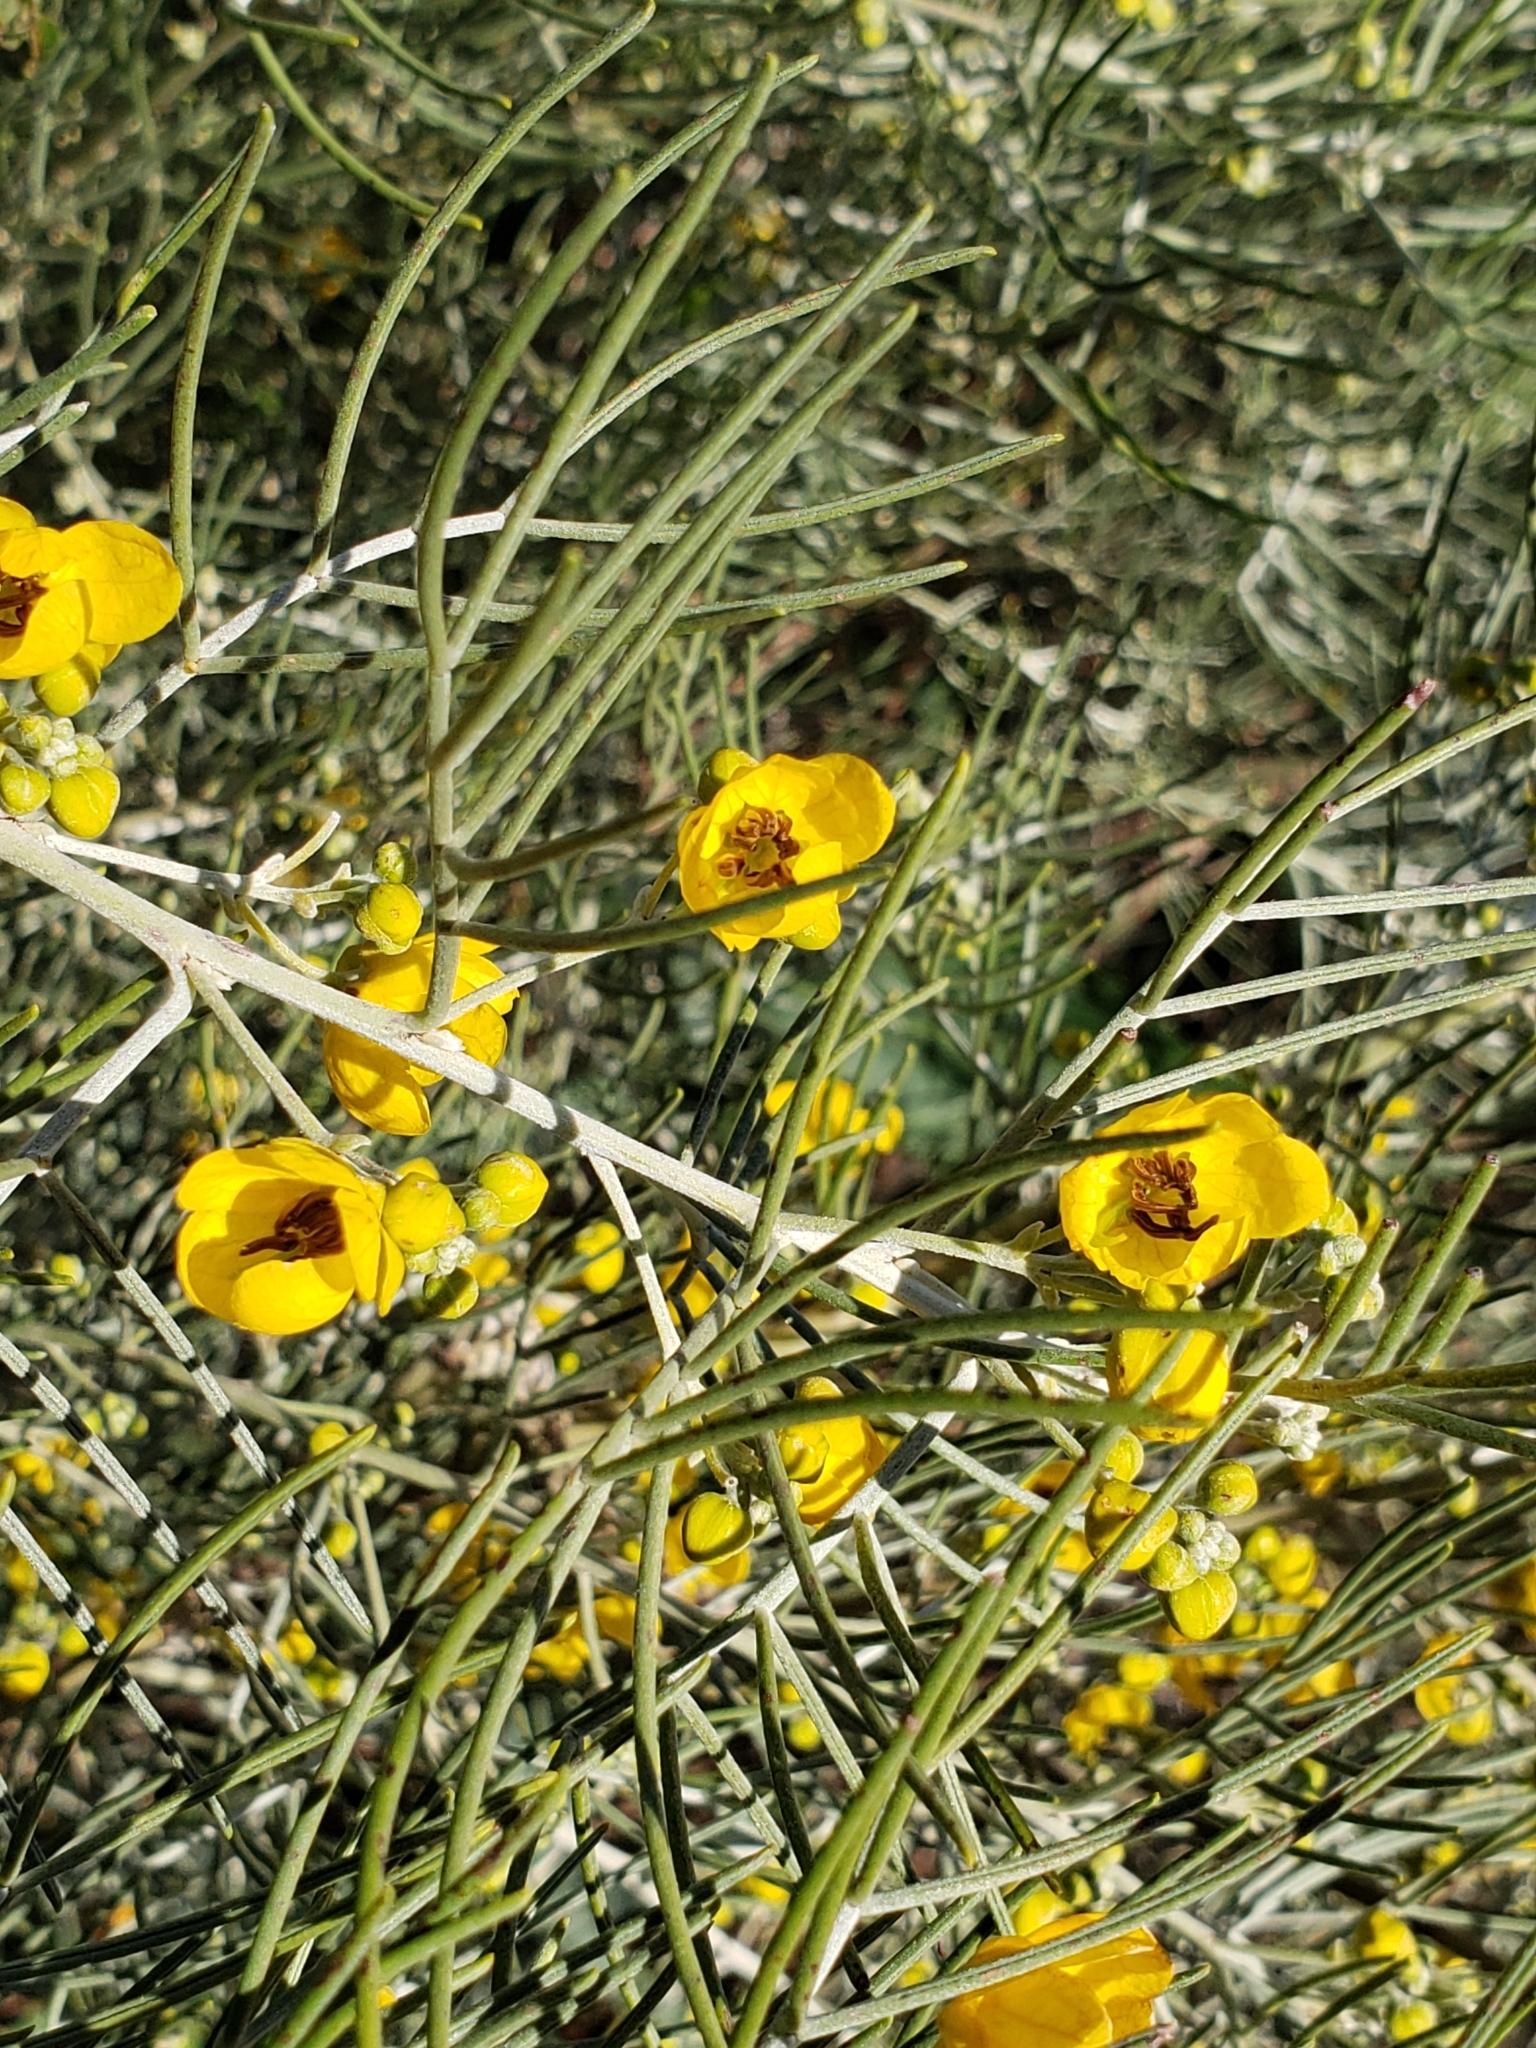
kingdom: Plantae
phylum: Tracheophyta
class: Magnoliopsida
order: Fabales
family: Fabaceae
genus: Senna
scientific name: Senna artemisioides
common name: Burnt-leaved acacia
